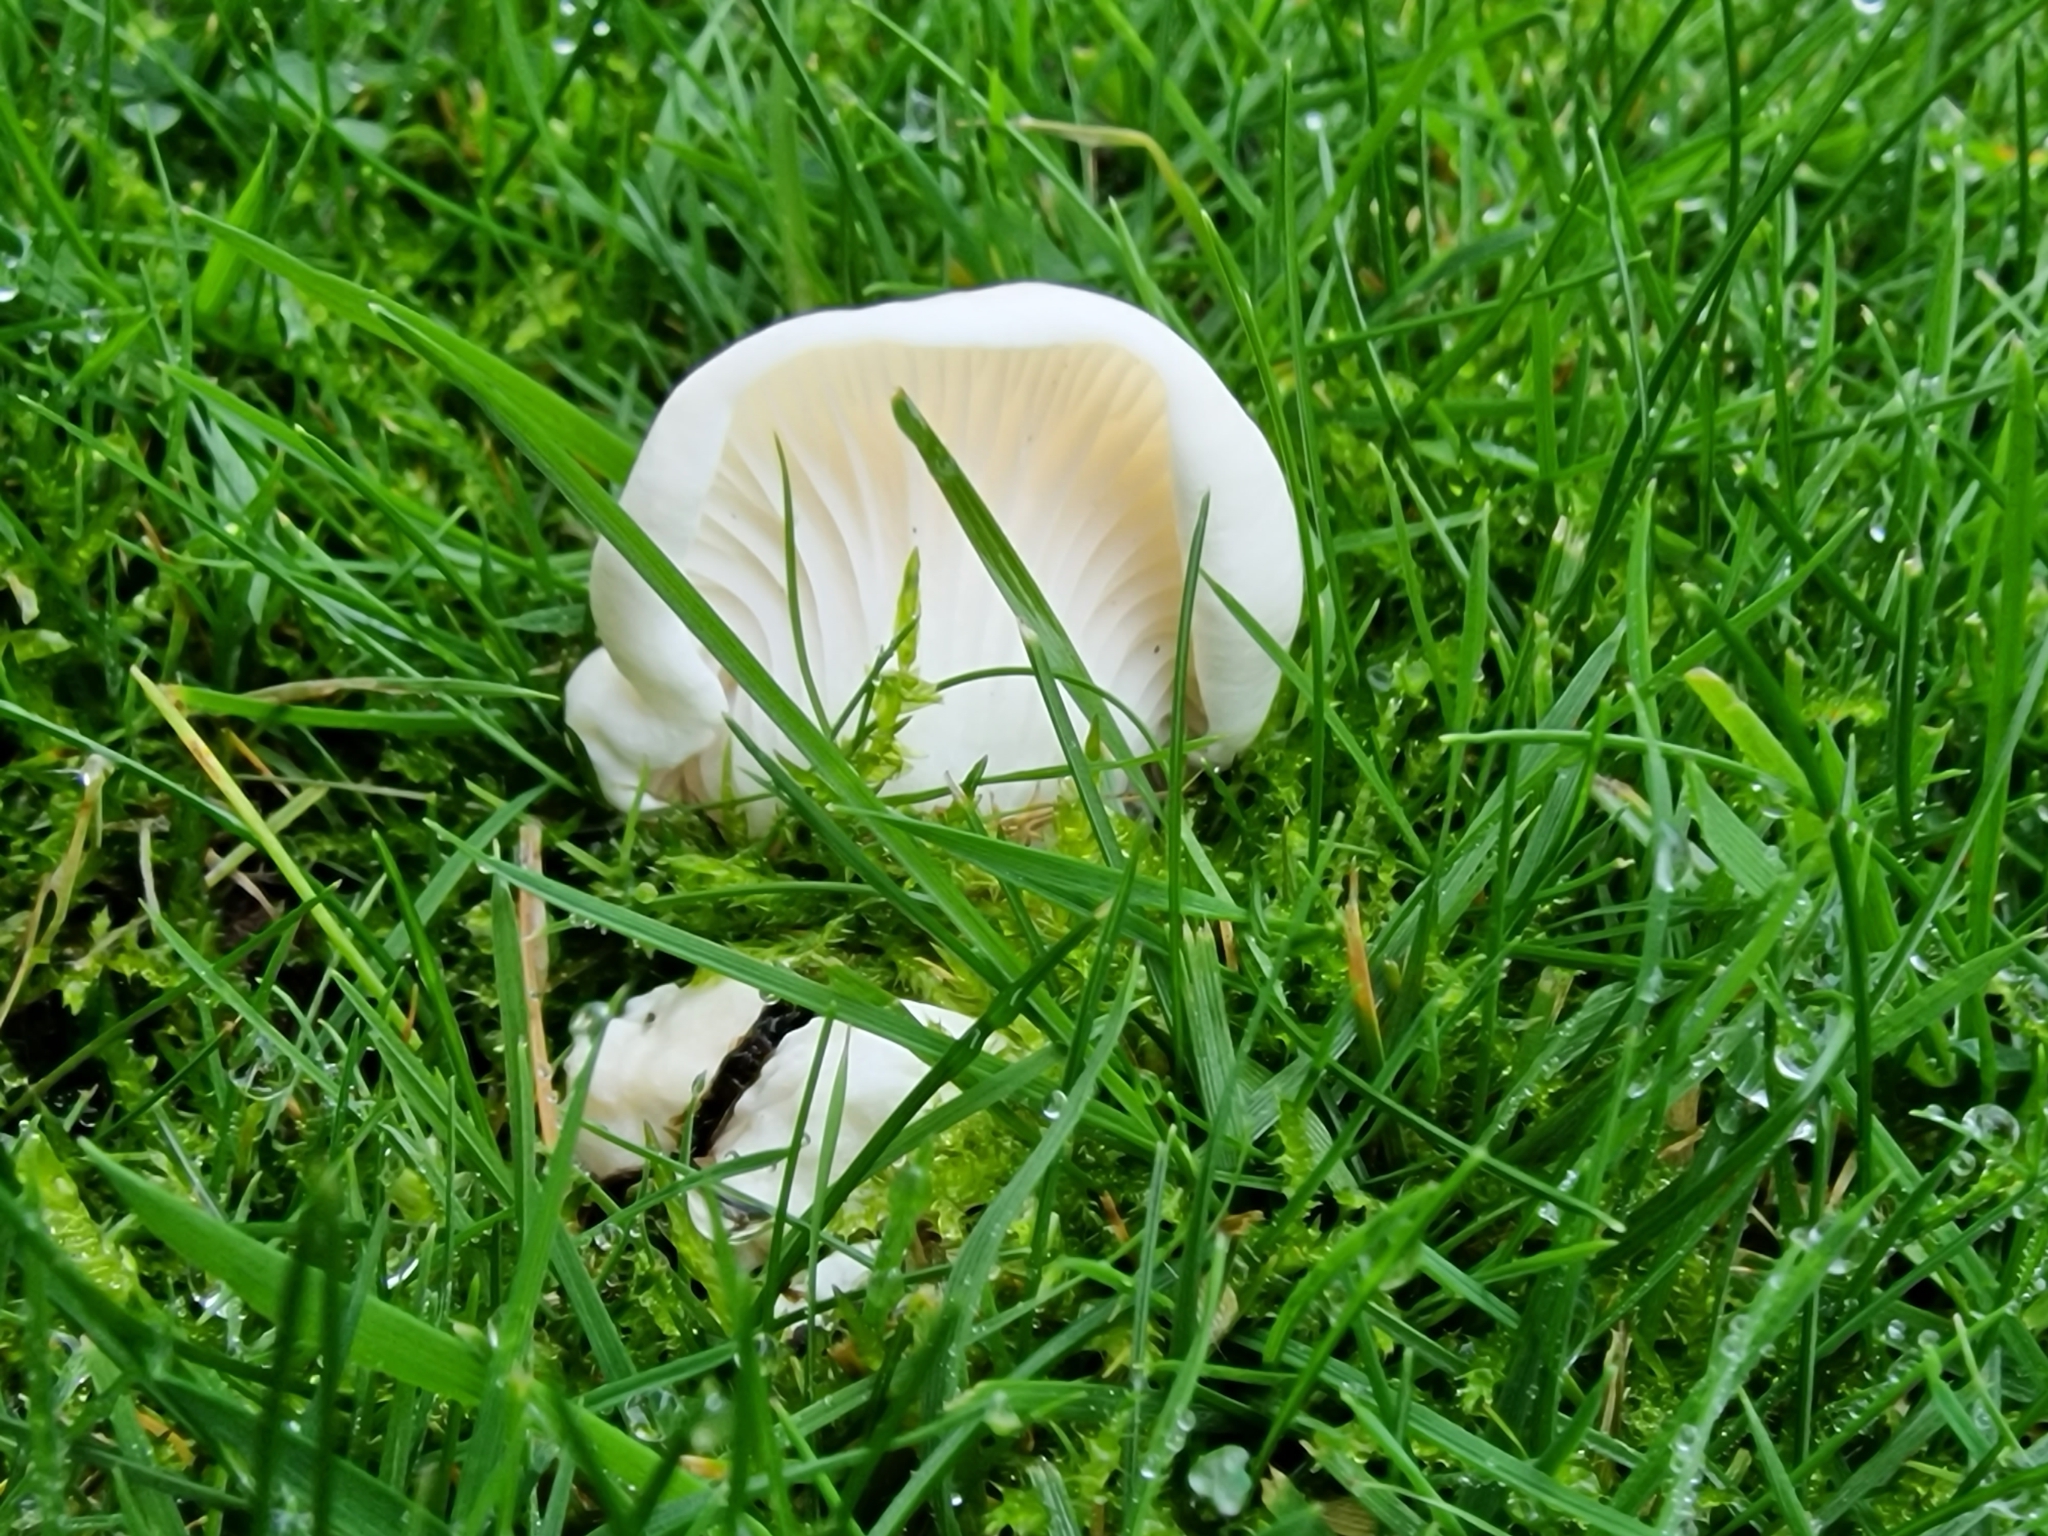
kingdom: Fungi
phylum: Basidiomycota
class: Agaricomycetes
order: Agaricales
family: Hygrophoraceae
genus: Cuphophyllus
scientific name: Cuphophyllus virgineus
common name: Snowy waxcap
